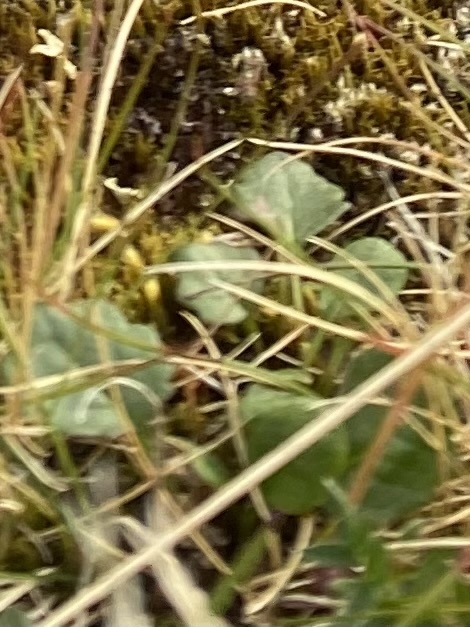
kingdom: Plantae
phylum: Tracheophyta
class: Magnoliopsida
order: Ericales
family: Ericaceae
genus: Orthilia
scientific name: Orthilia secunda
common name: One-sided orthilia
